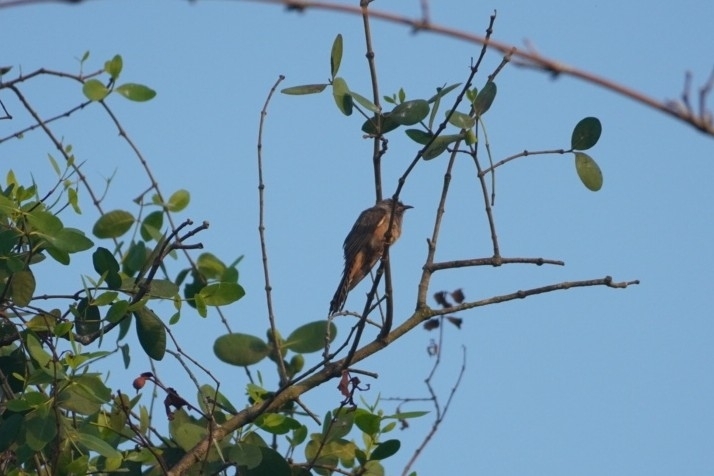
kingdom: Animalia
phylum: Chordata
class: Aves
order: Cuculiformes
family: Cuculidae
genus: Cacomantis
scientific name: Cacomantis merulinus
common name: Plaintive cuckoo
